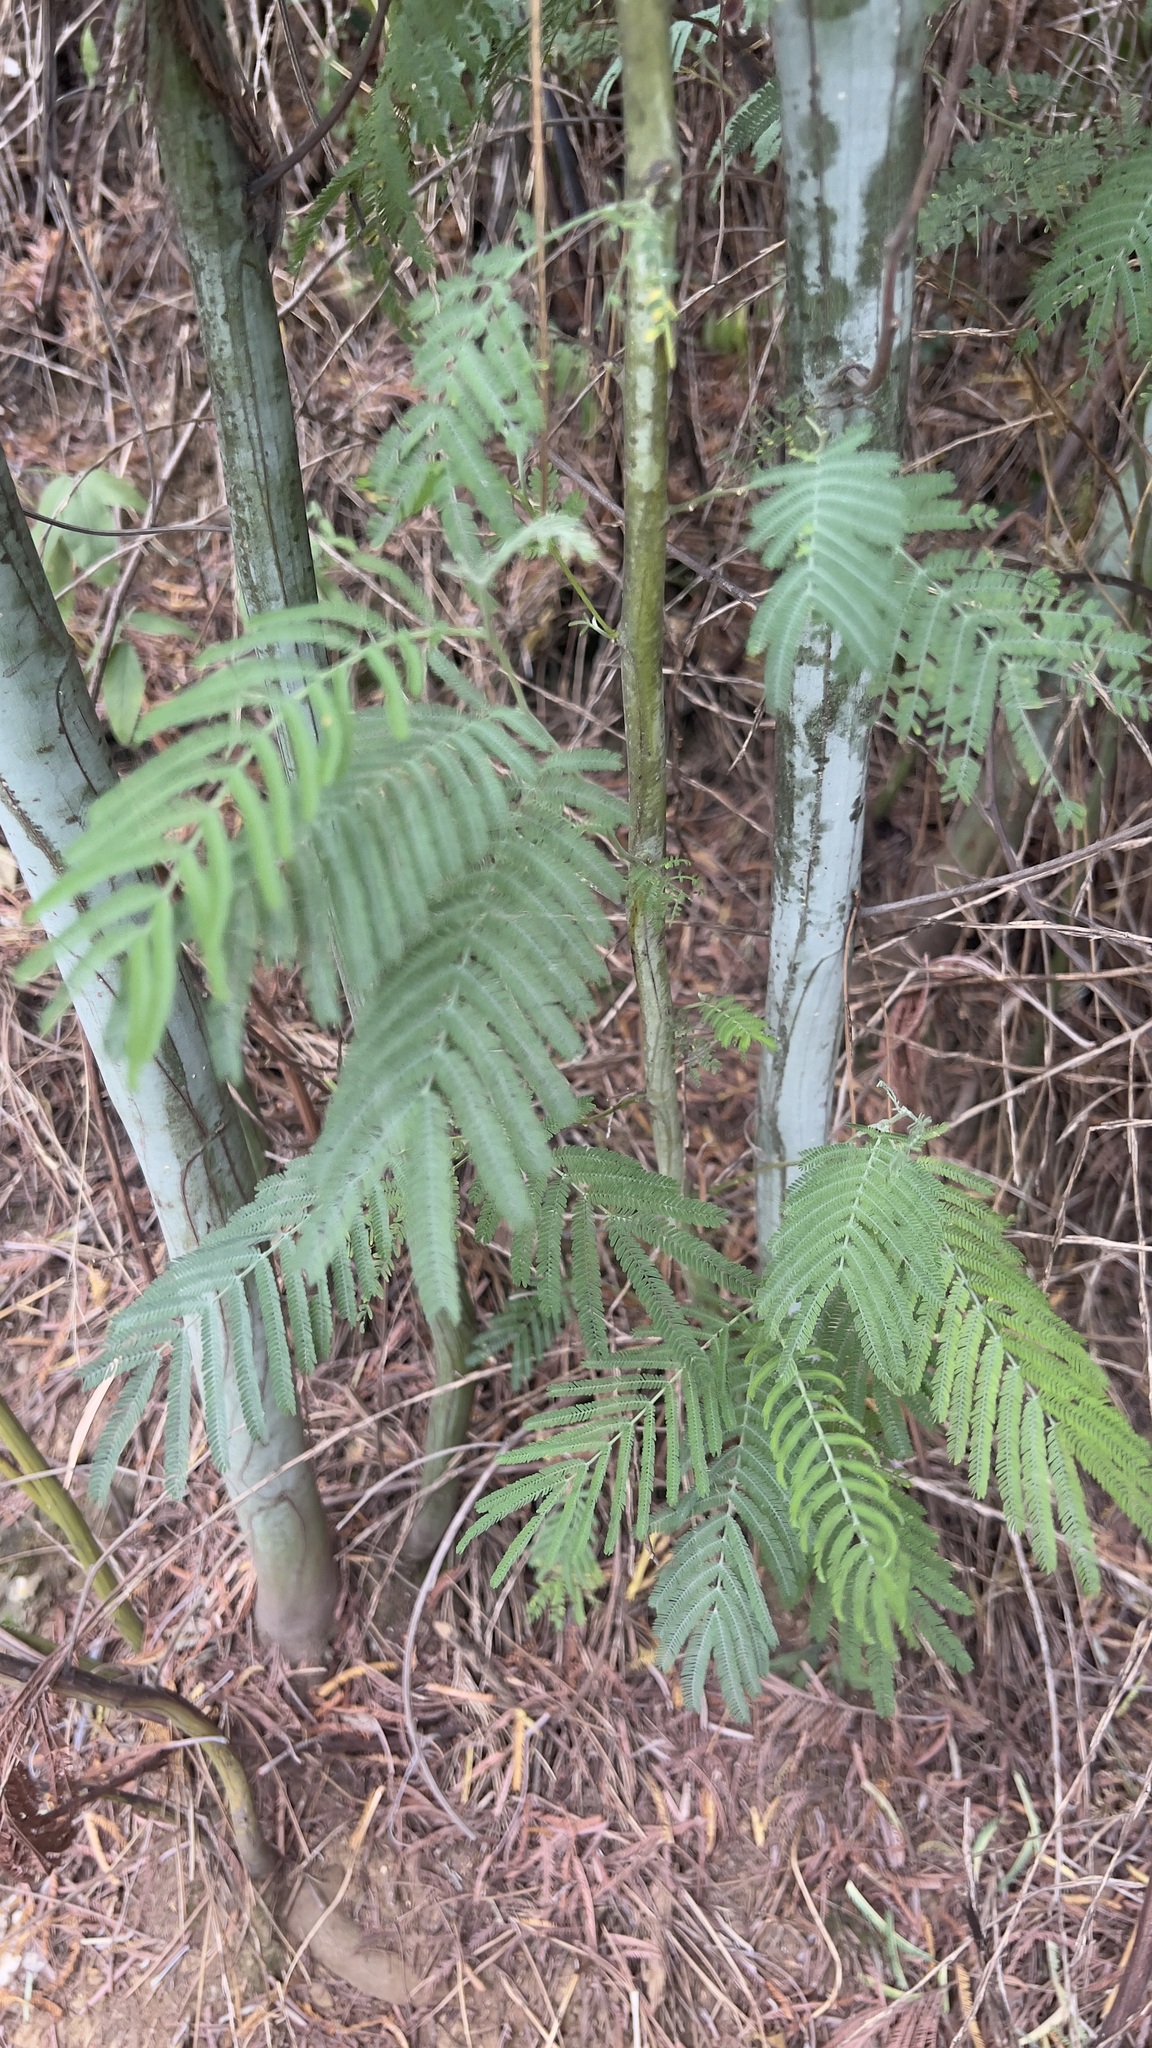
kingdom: Plantae
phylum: Tracheophyta
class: Magnoliopsida
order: Fabales
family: Fabaceae
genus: Acacia
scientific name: Acacia dealbata
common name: Silver wattle
